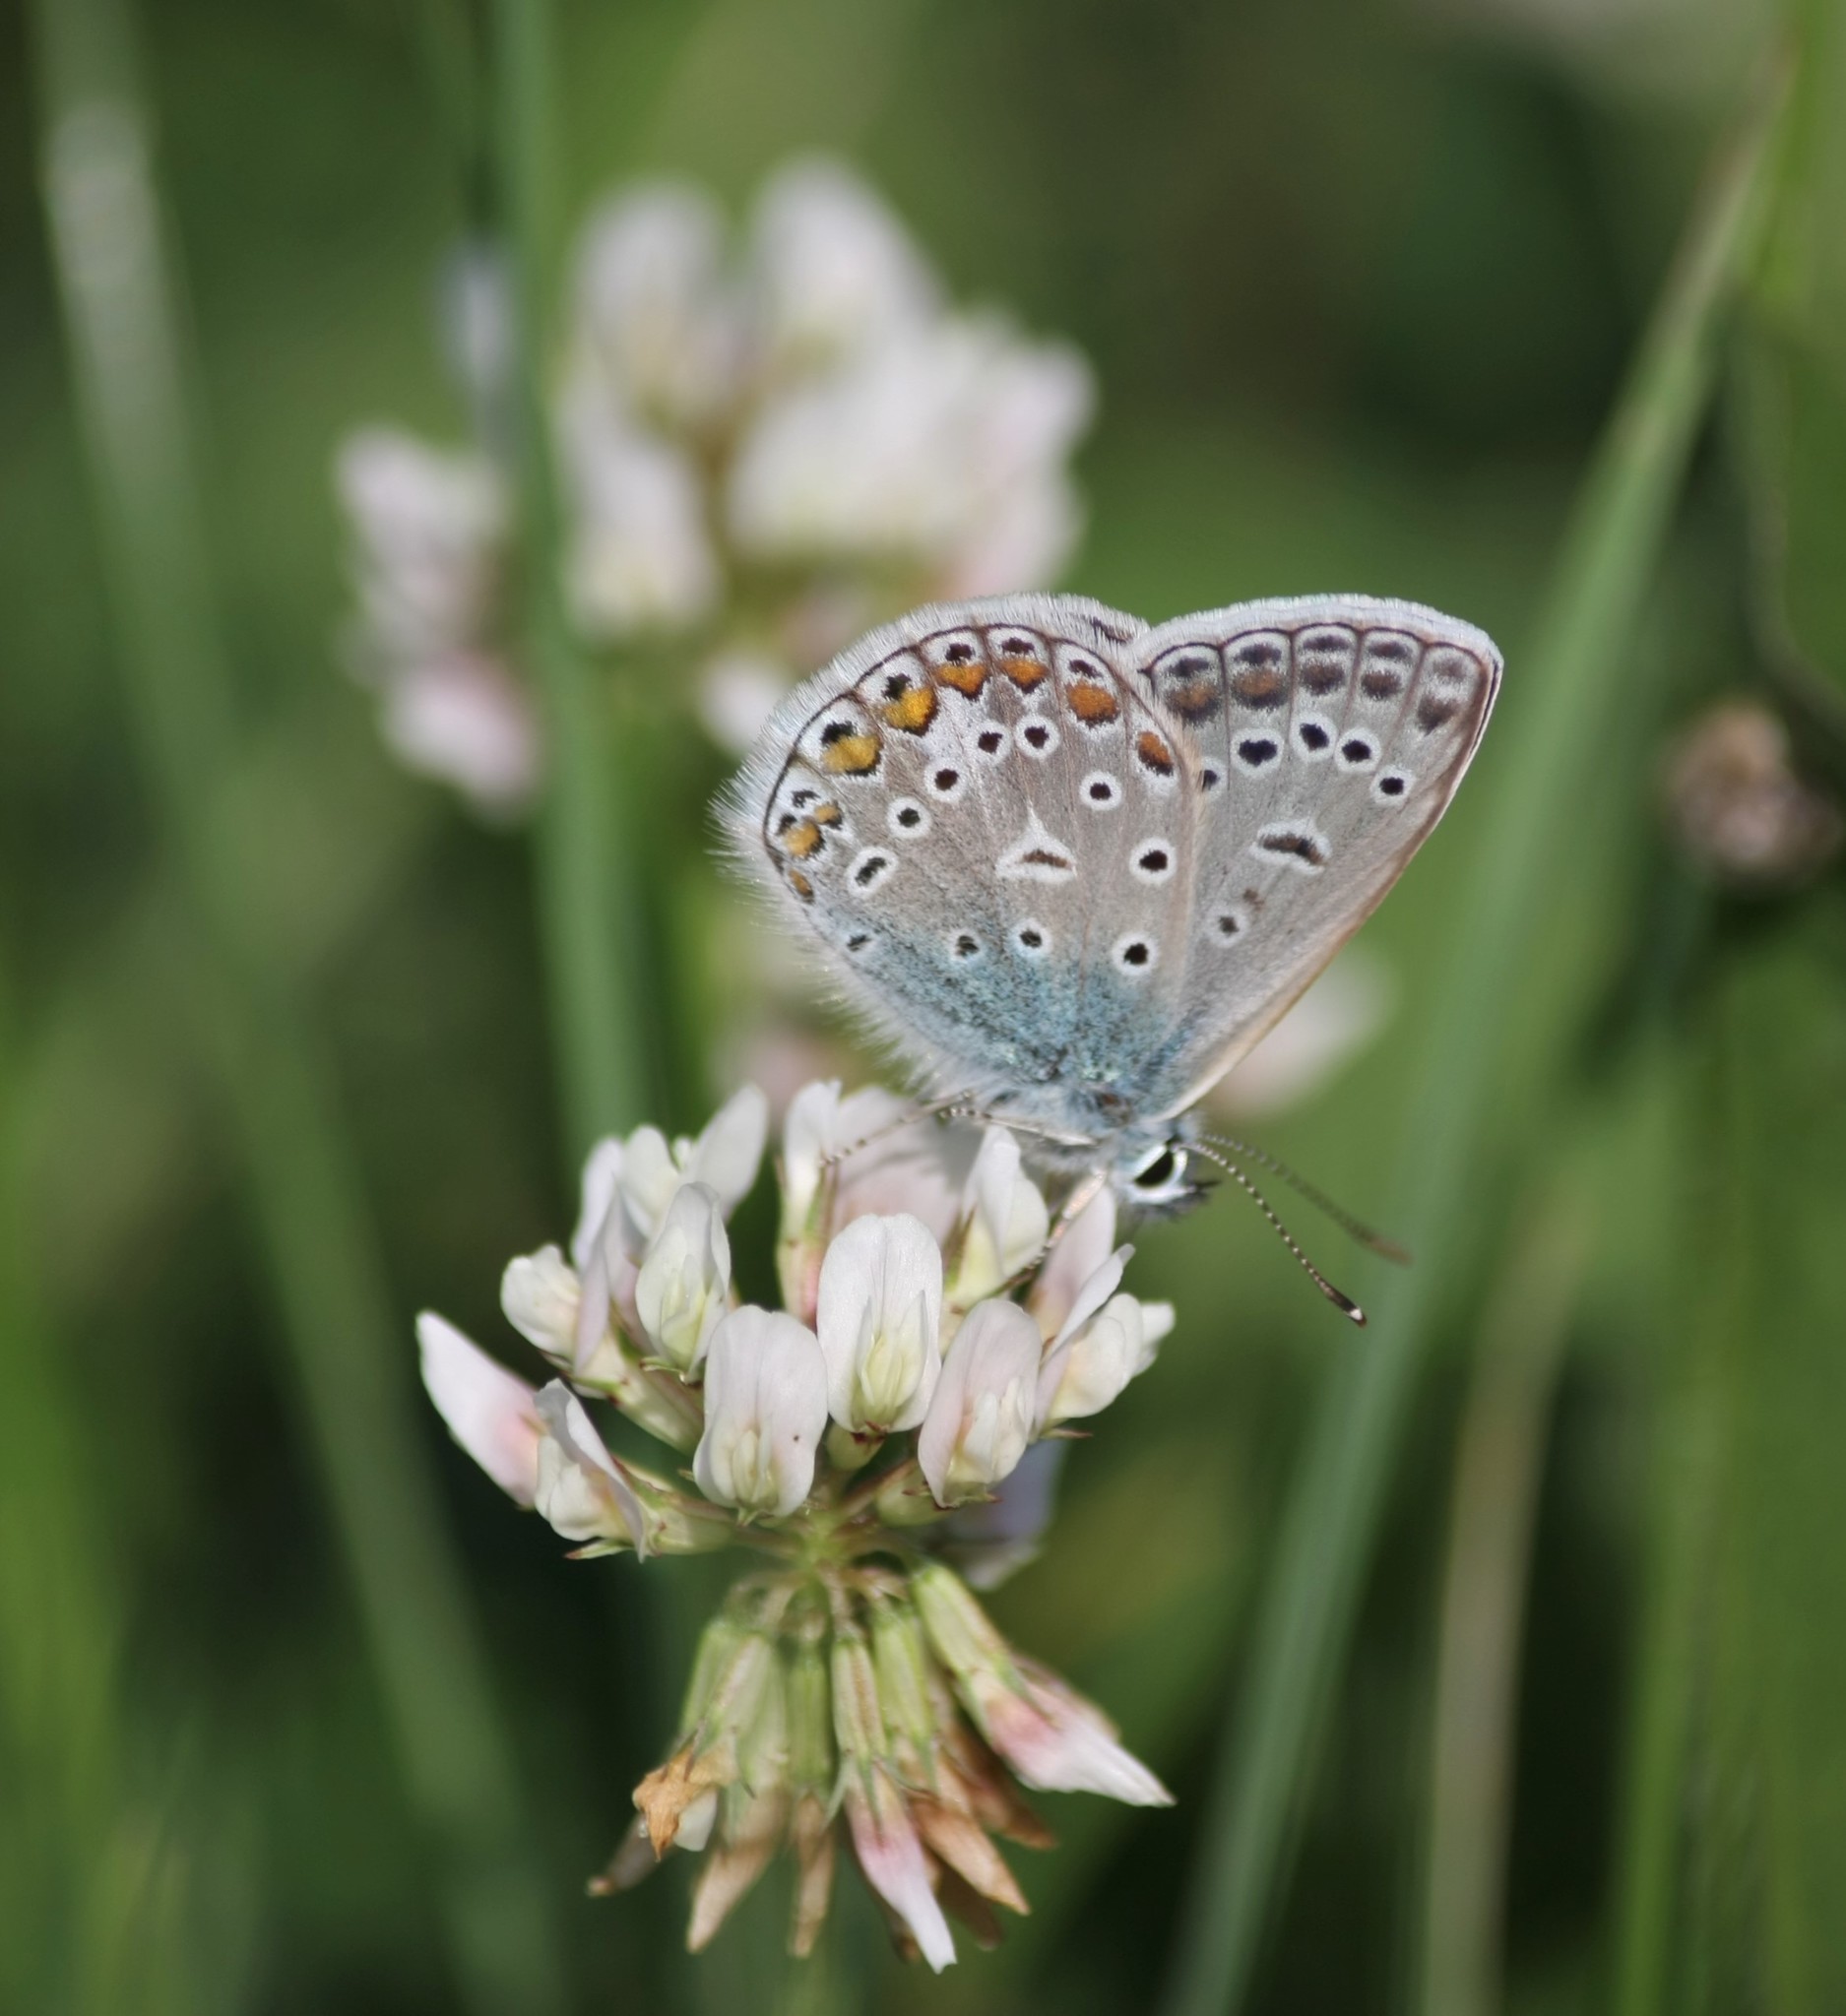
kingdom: Animalia
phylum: Arthropoda
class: Insecta
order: Lepidoptera
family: Lycaenidae
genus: Polyommatus
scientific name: Polyommatus icarus
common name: Common blue
